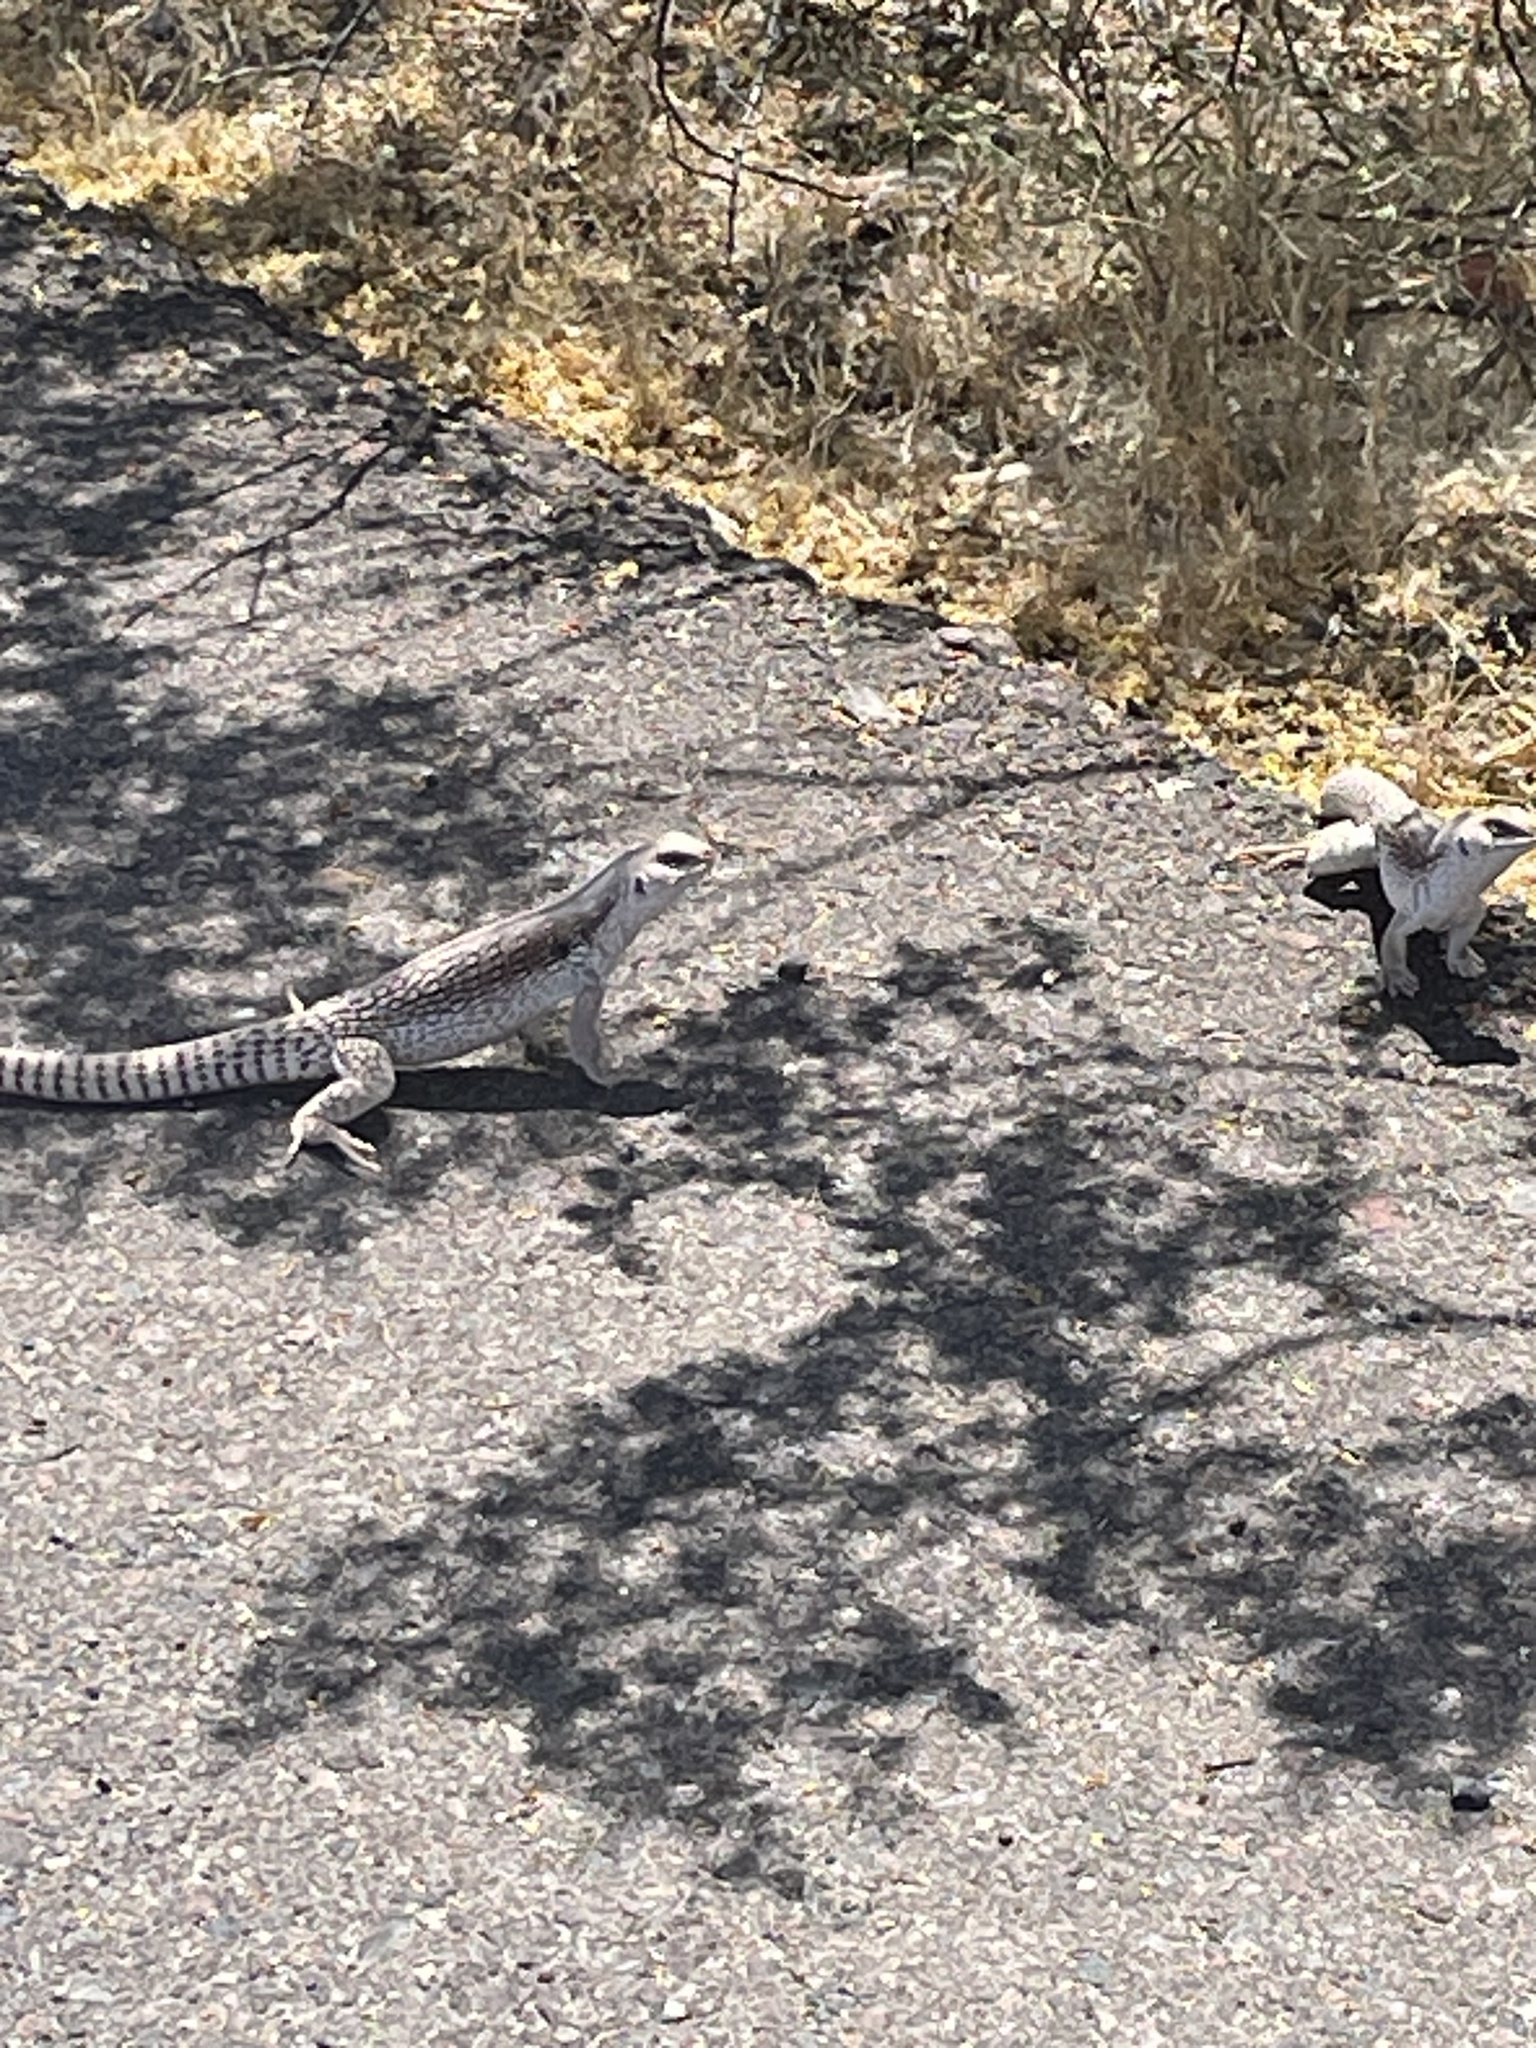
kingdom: Animalia
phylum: Chordata
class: Squamata
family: Iguanidae
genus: Dipsosaurus
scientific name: Dipsosaurus dorsalis
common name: Desert iguana
